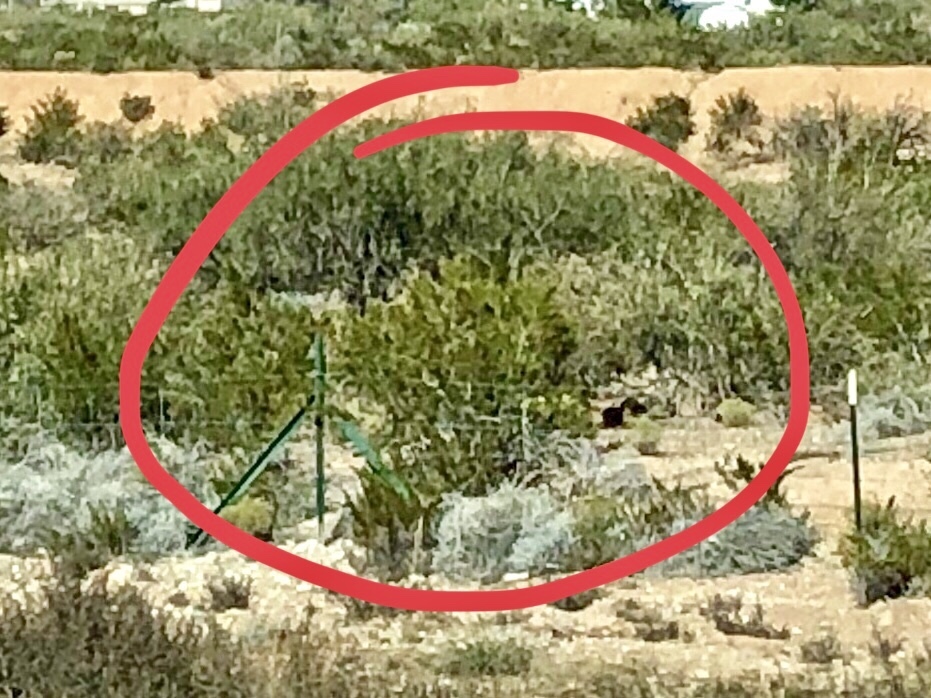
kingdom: Plantae
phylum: Tracheophyta
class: Magnoliopsida
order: Zygophyllales
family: Zygophyllaceae
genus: Larrea
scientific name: Larrea tridentata
